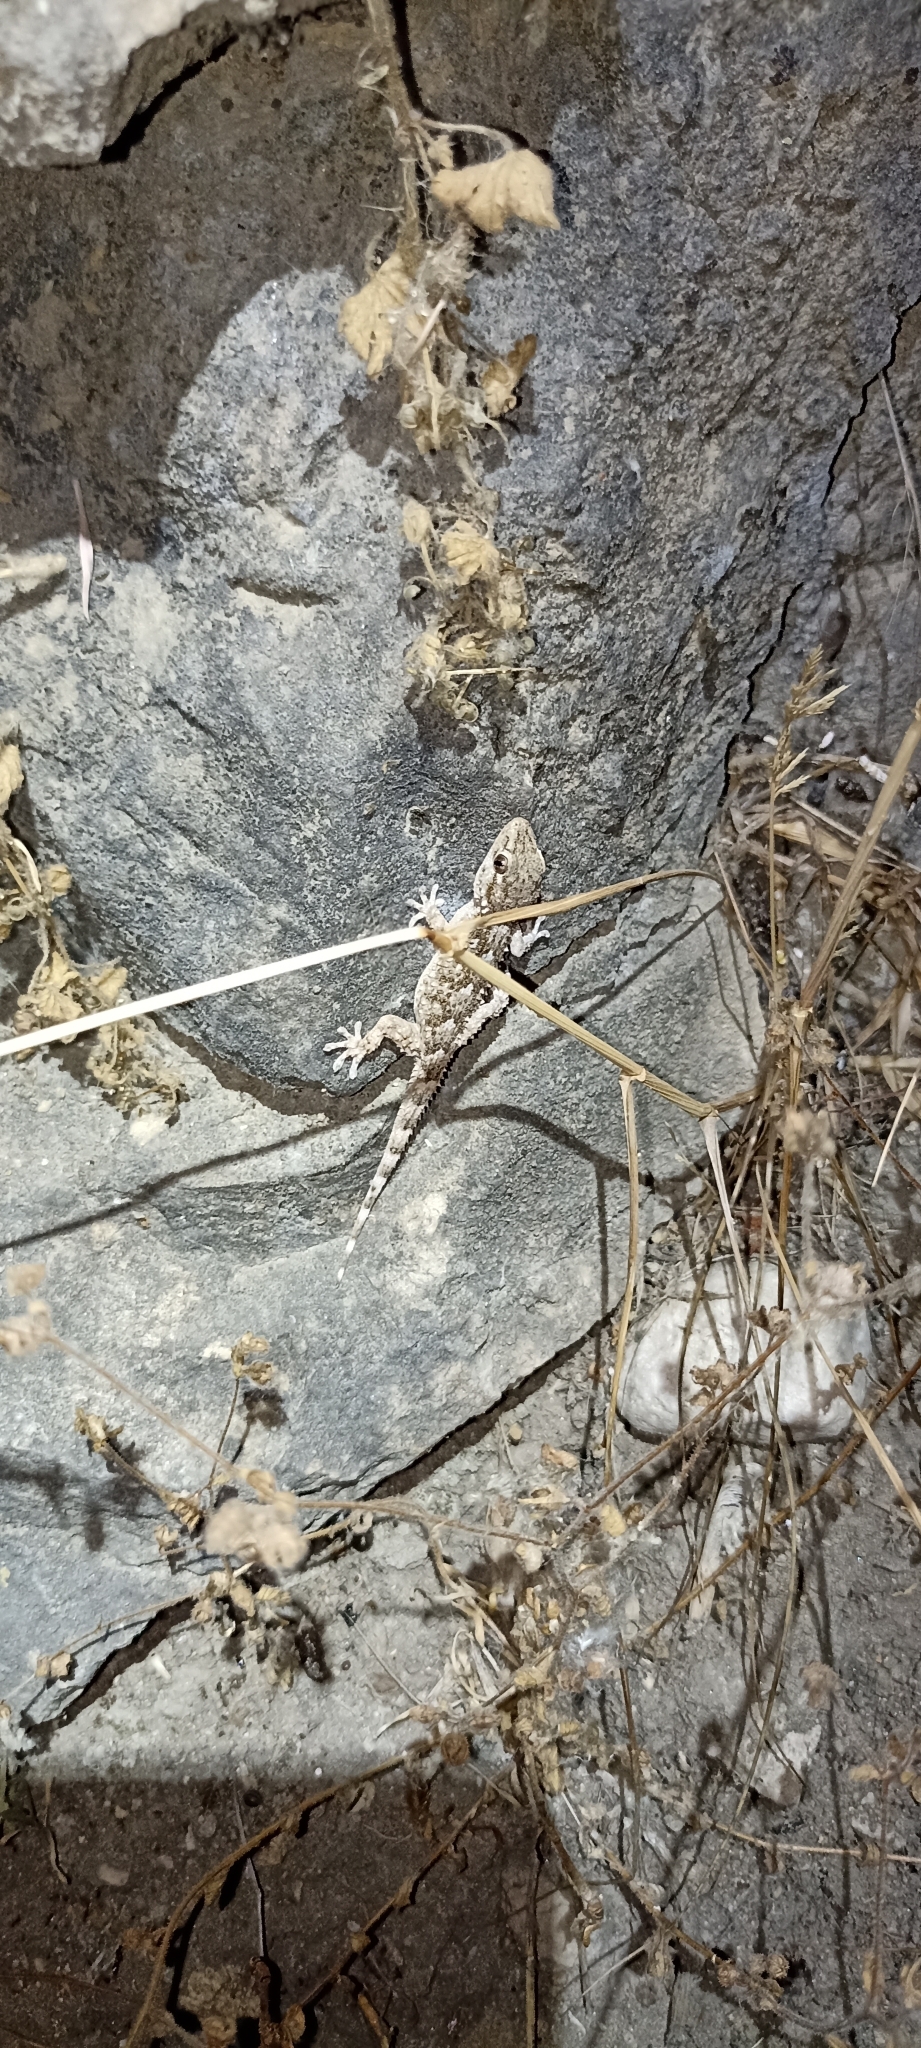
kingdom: Animalia
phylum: Chordata
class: Squamata
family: Phyllodactylidae
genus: Tarentola
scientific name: Tarentola mauritanica
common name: Moorish gecko
